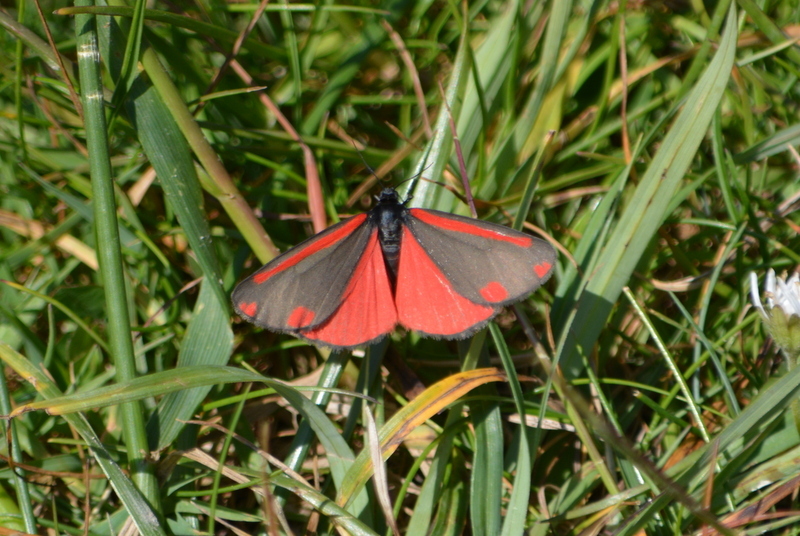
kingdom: Animalia
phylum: Arthropoda
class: Insecta
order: Lepidoptera
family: Erebidae
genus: Tyria
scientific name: Tyria jacobaeae
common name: Cinnabar
